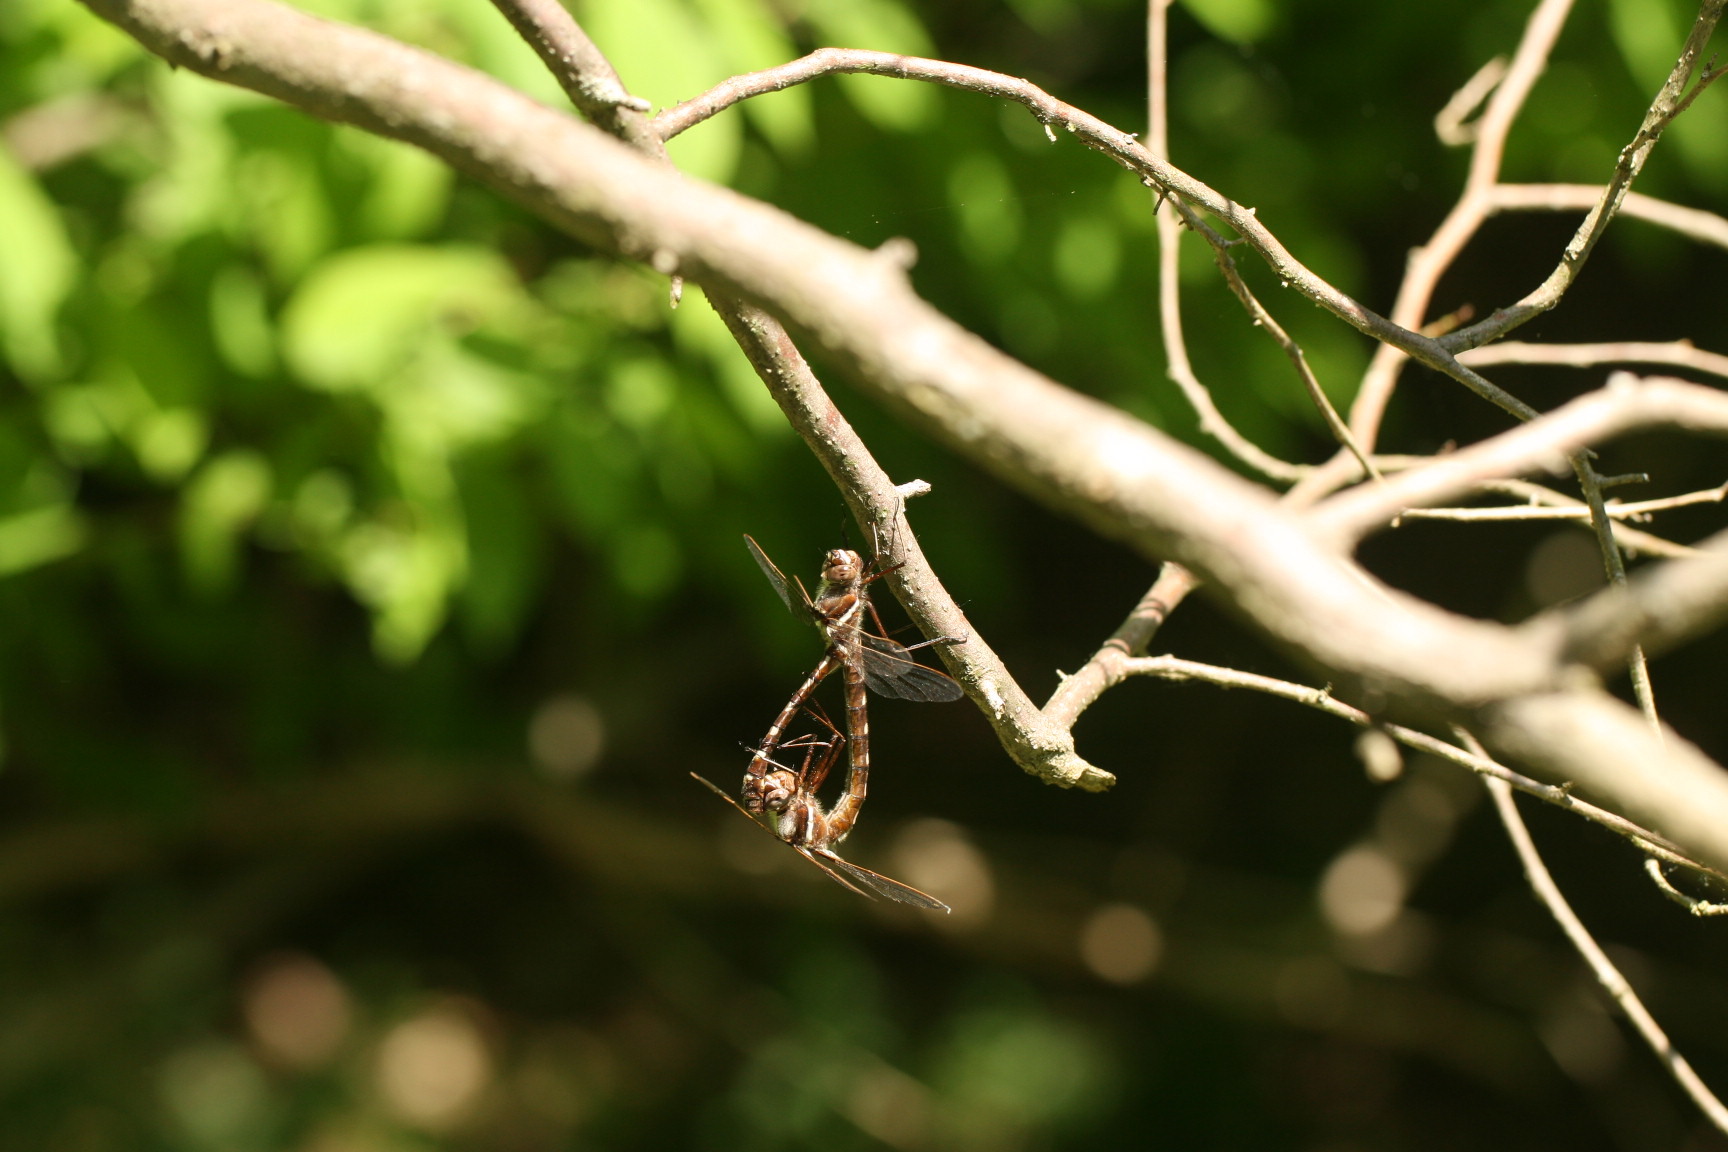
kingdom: Animalia
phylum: Arthropoda
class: Insecta
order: Odonata
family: Macromiidae
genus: Didymops
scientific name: Didymops transversa
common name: Stream cruiser
